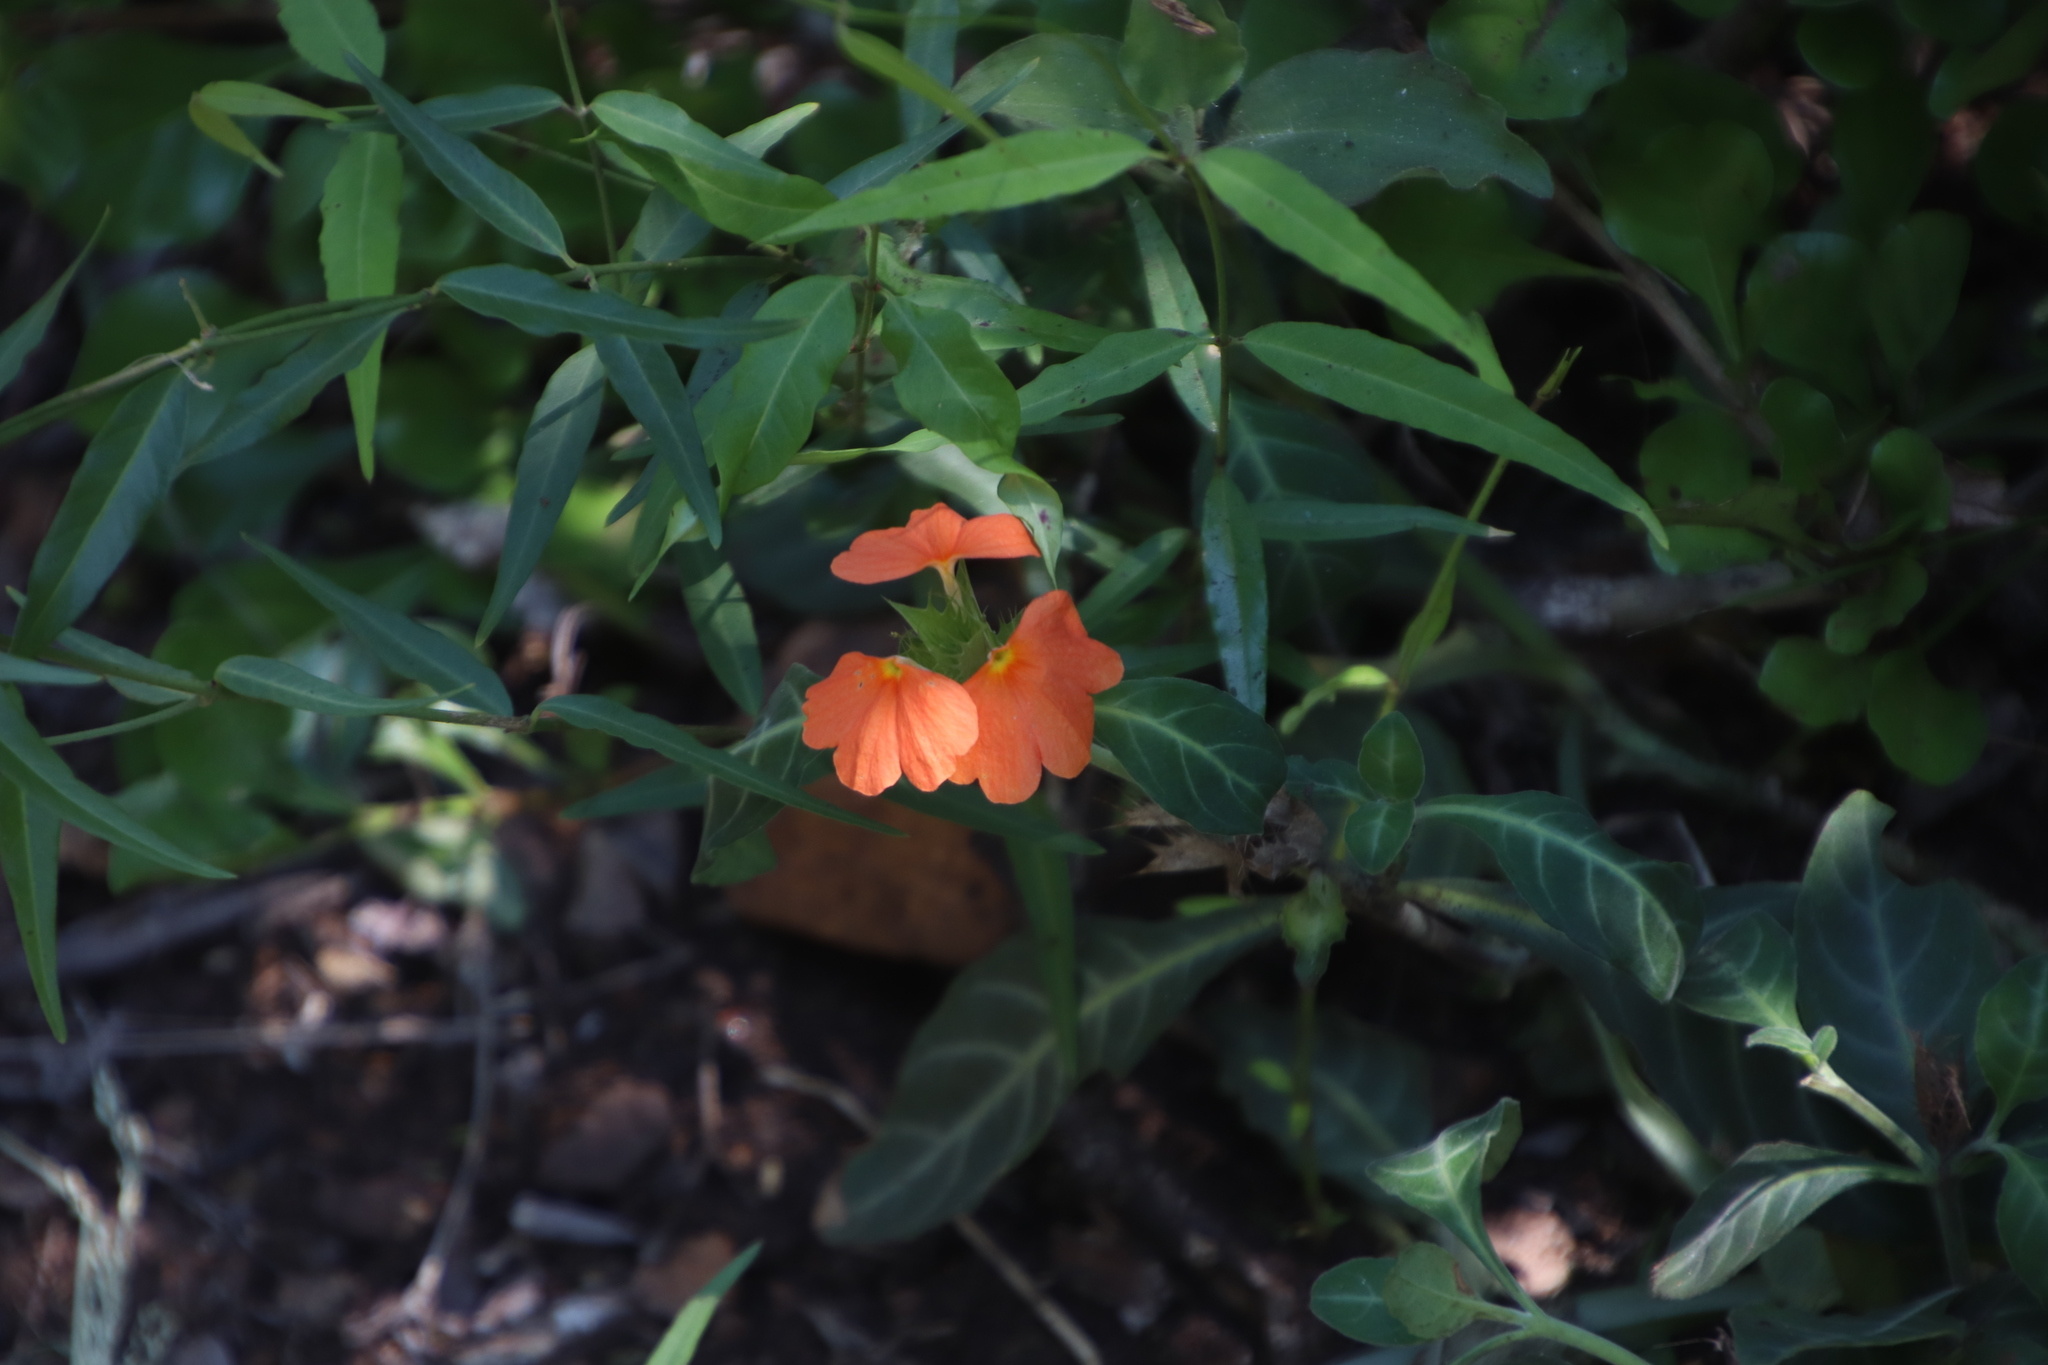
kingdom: Plantae
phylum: Tracheophyta
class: Magnoliopsida
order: Lamiales
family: Acanthaceae
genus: Crossandra
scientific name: Crossandra fruticulosa
